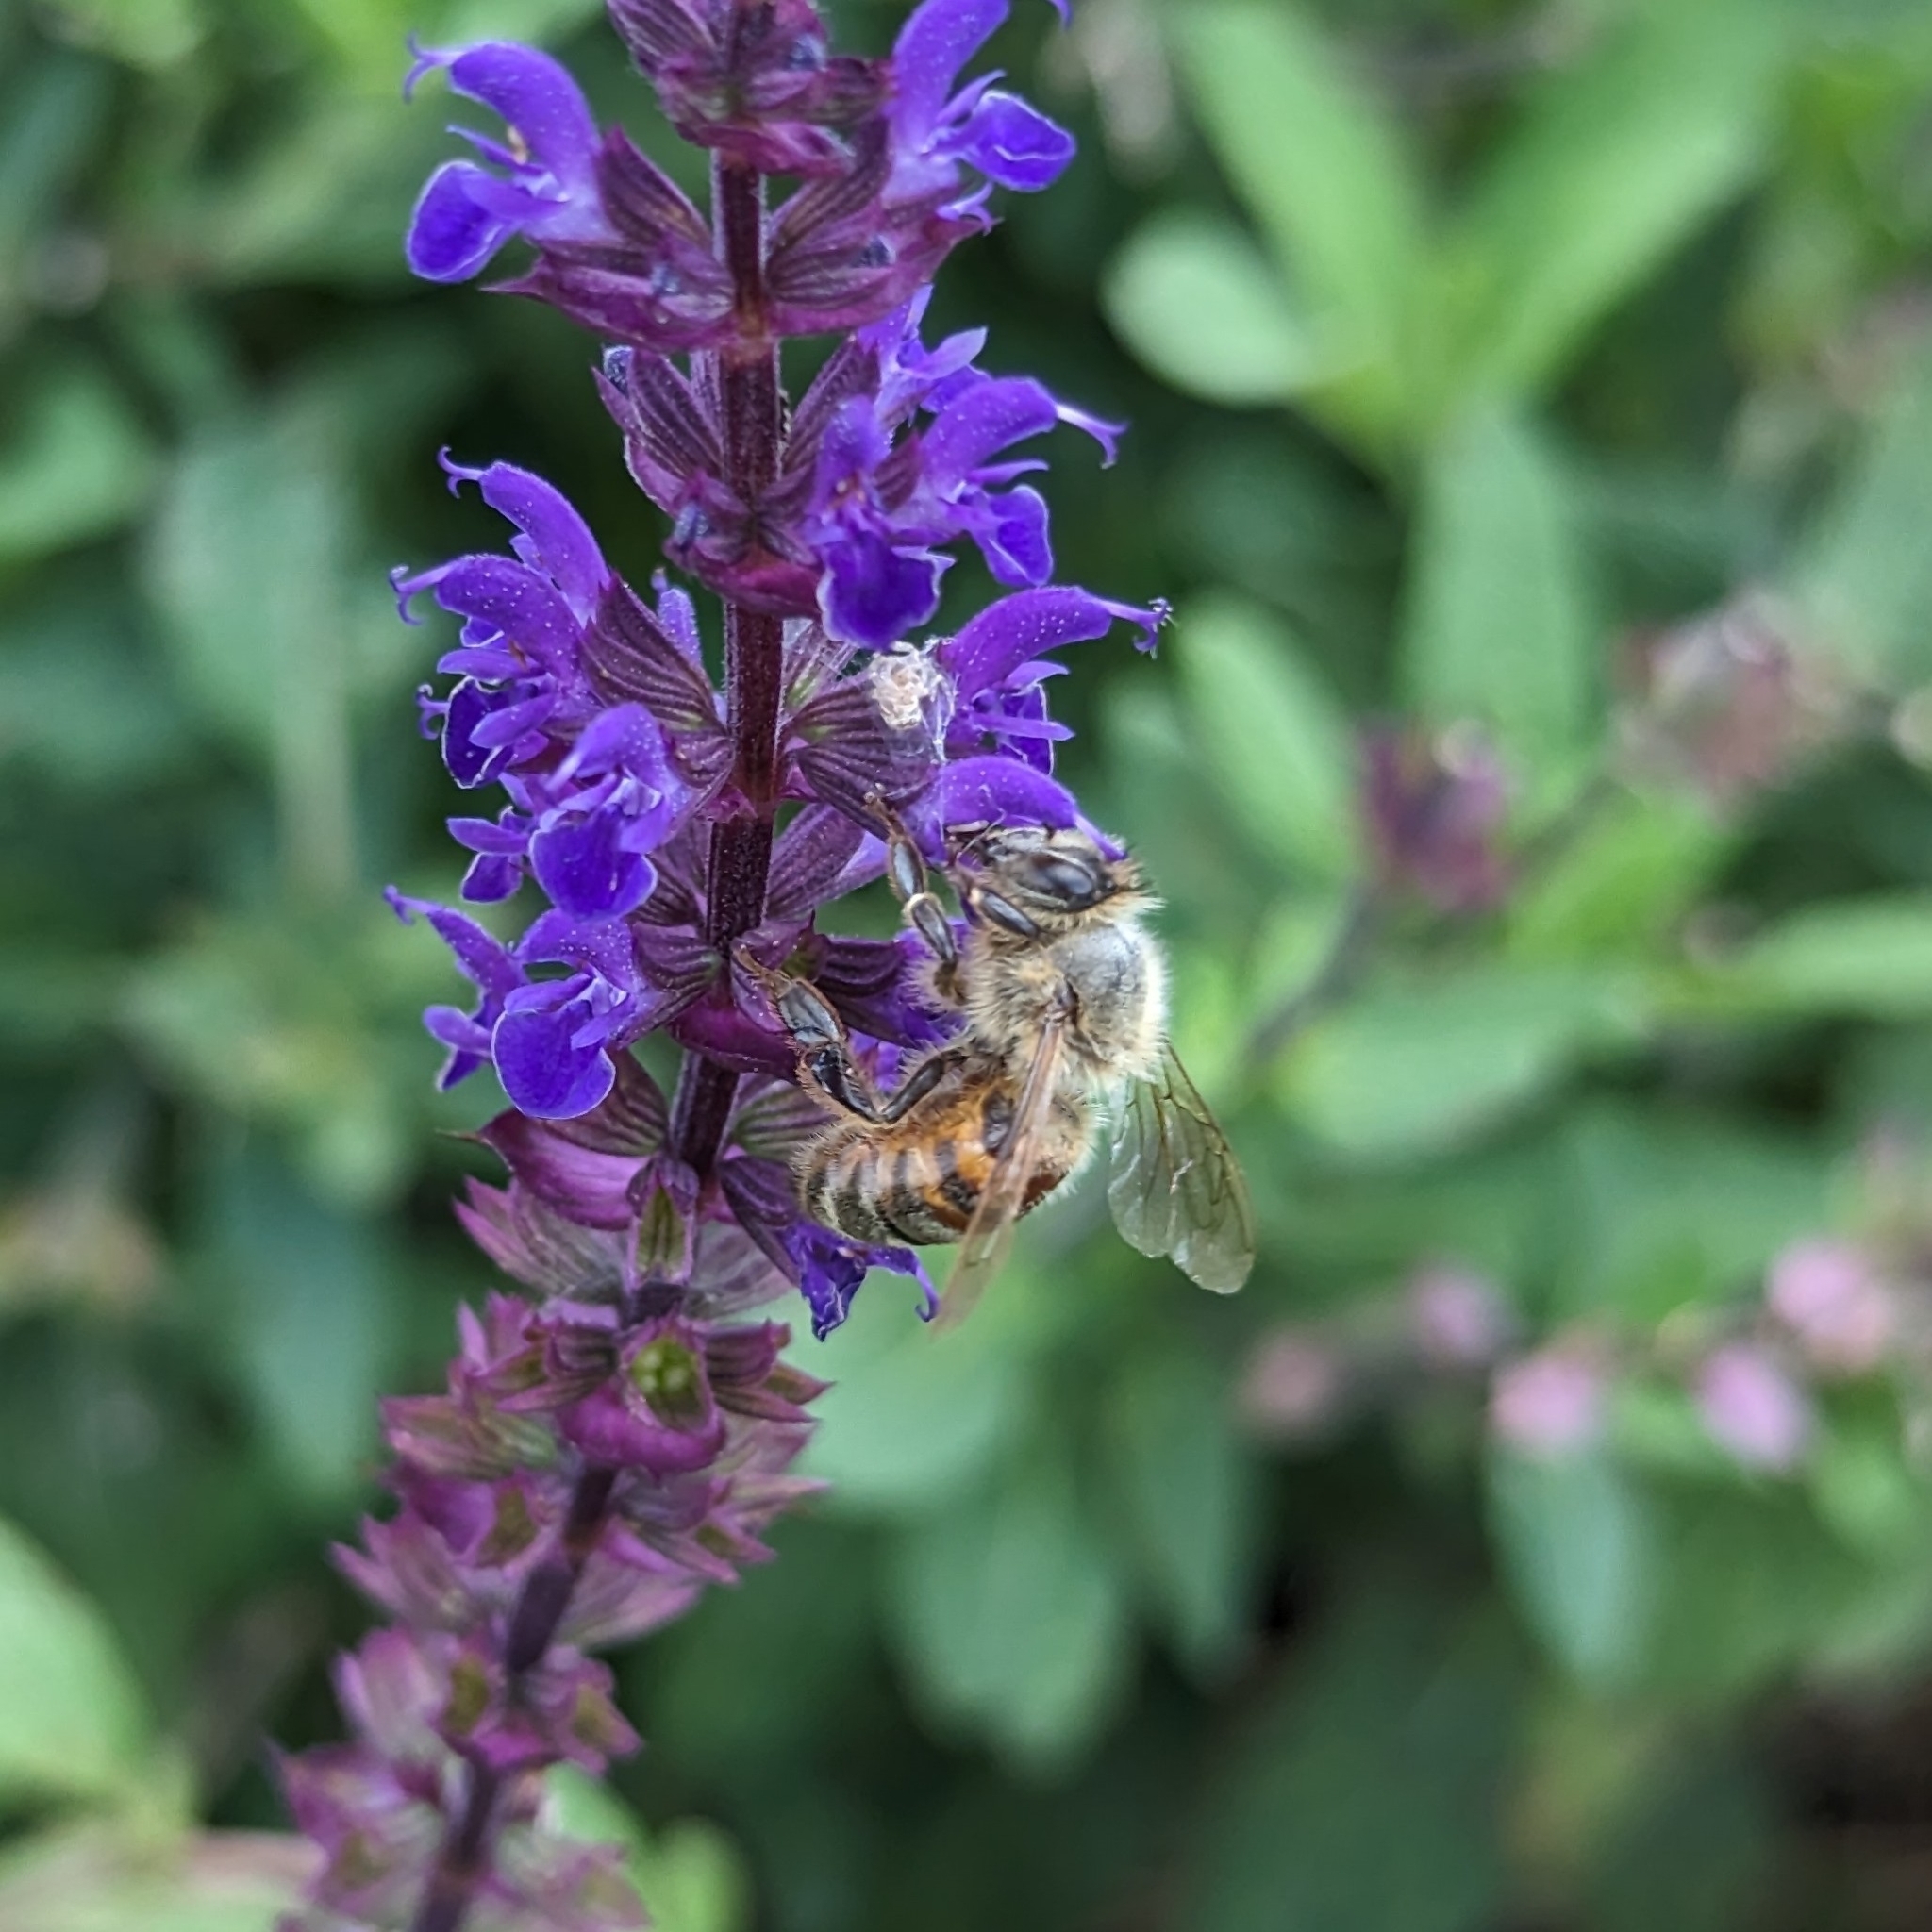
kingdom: Animalia
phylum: Arthropoda
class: Insecta
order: Hymenoptera
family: Apidae
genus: Apis
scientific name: Apis mellifera
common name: Honey bee
